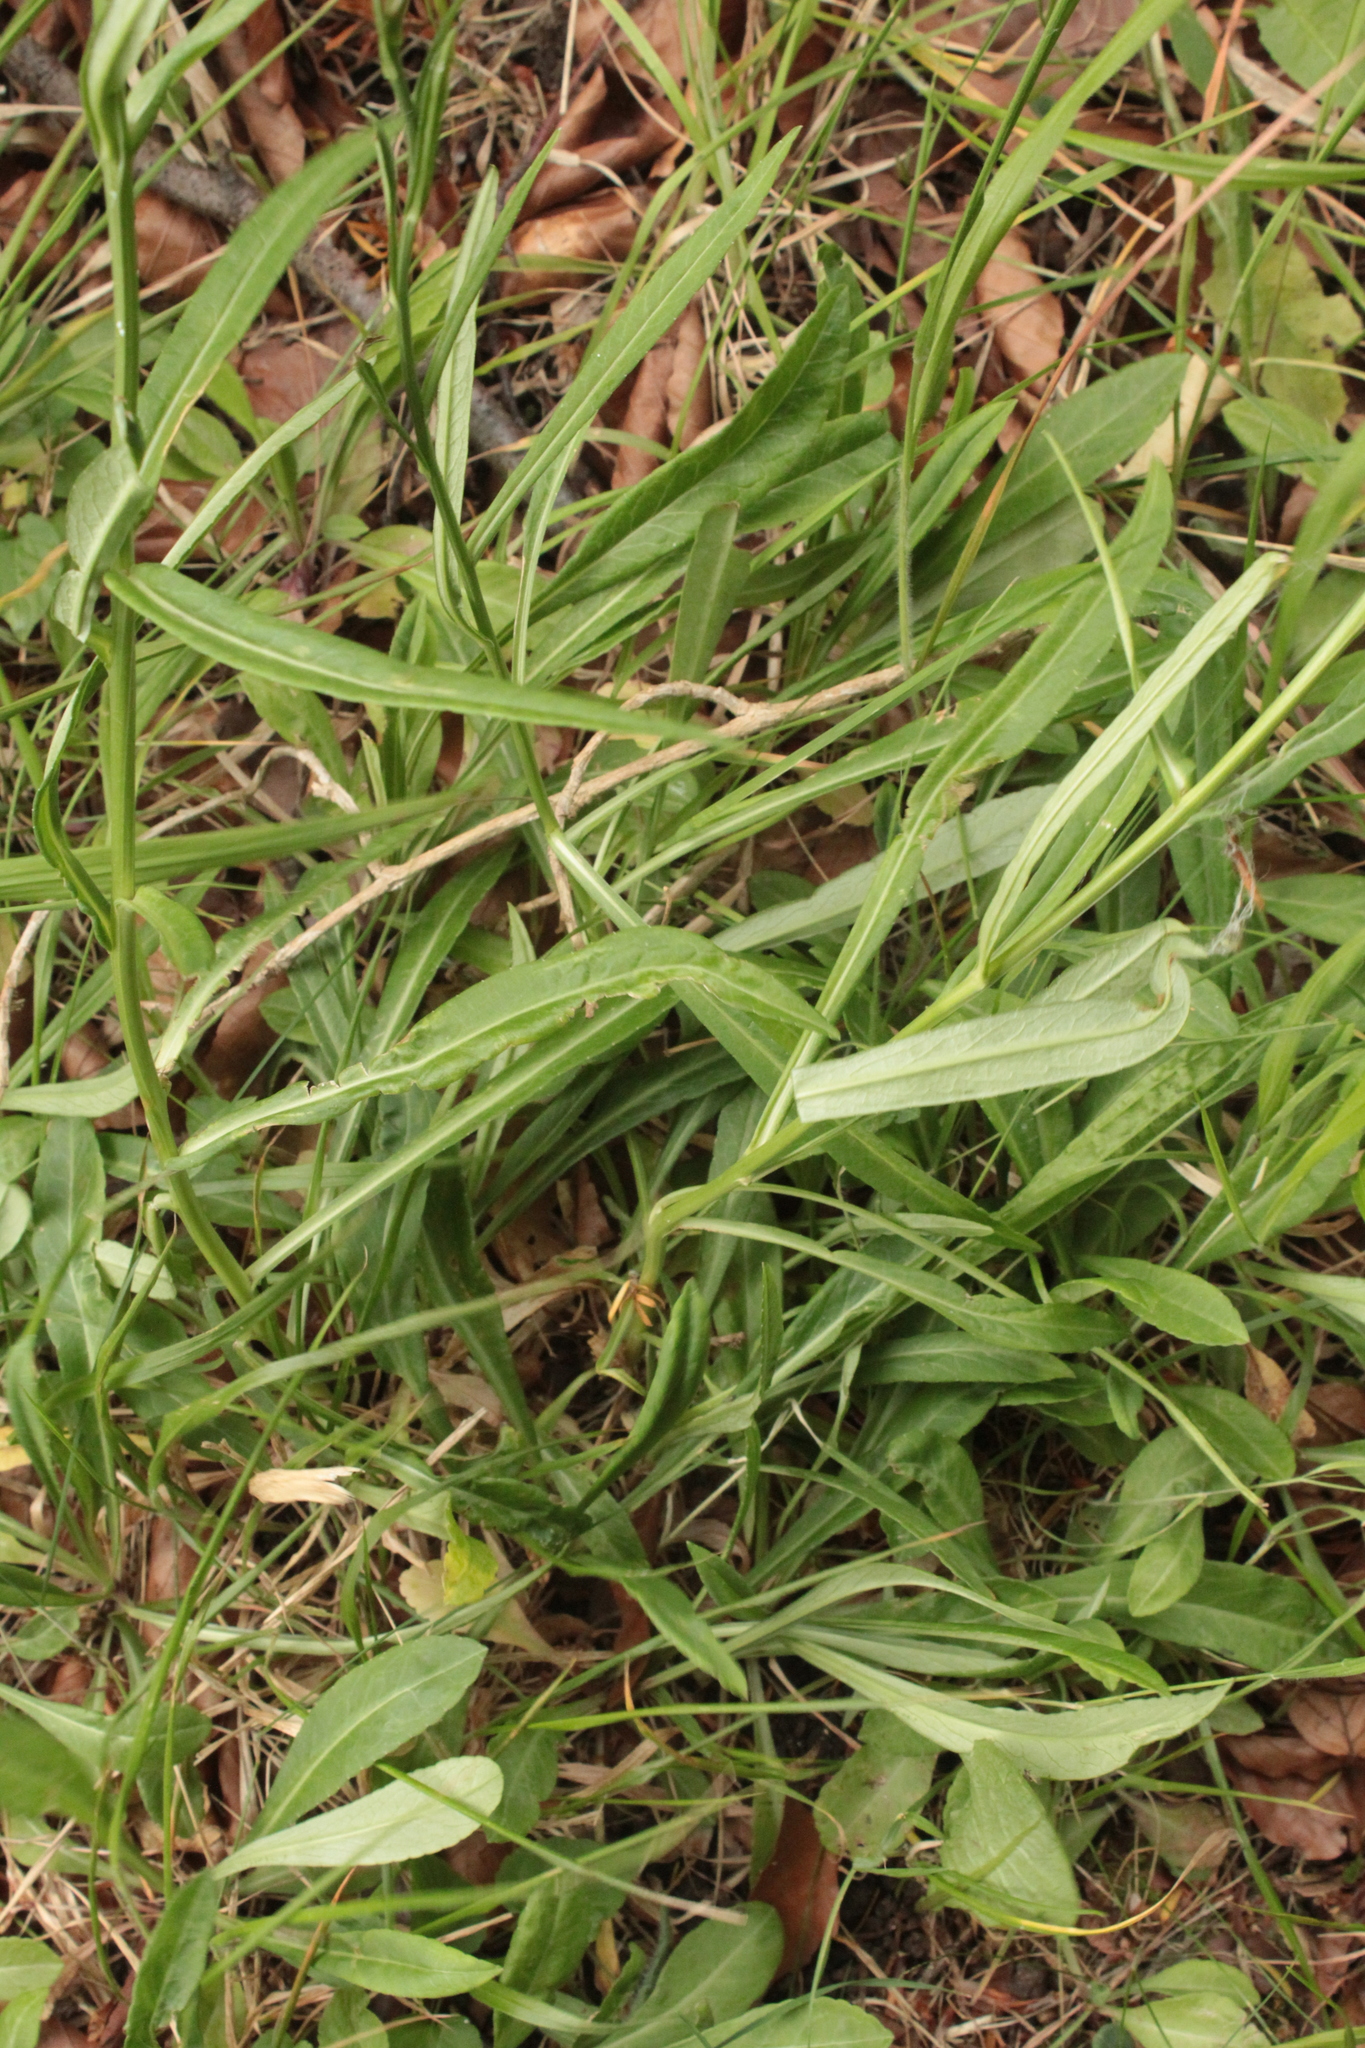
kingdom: Plantae
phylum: Tracheophyta
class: Magnoliopsida
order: Asterales
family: Campanulaceae
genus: Campanula
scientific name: Campanula persicifolia
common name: Peach-leaved bellflower
